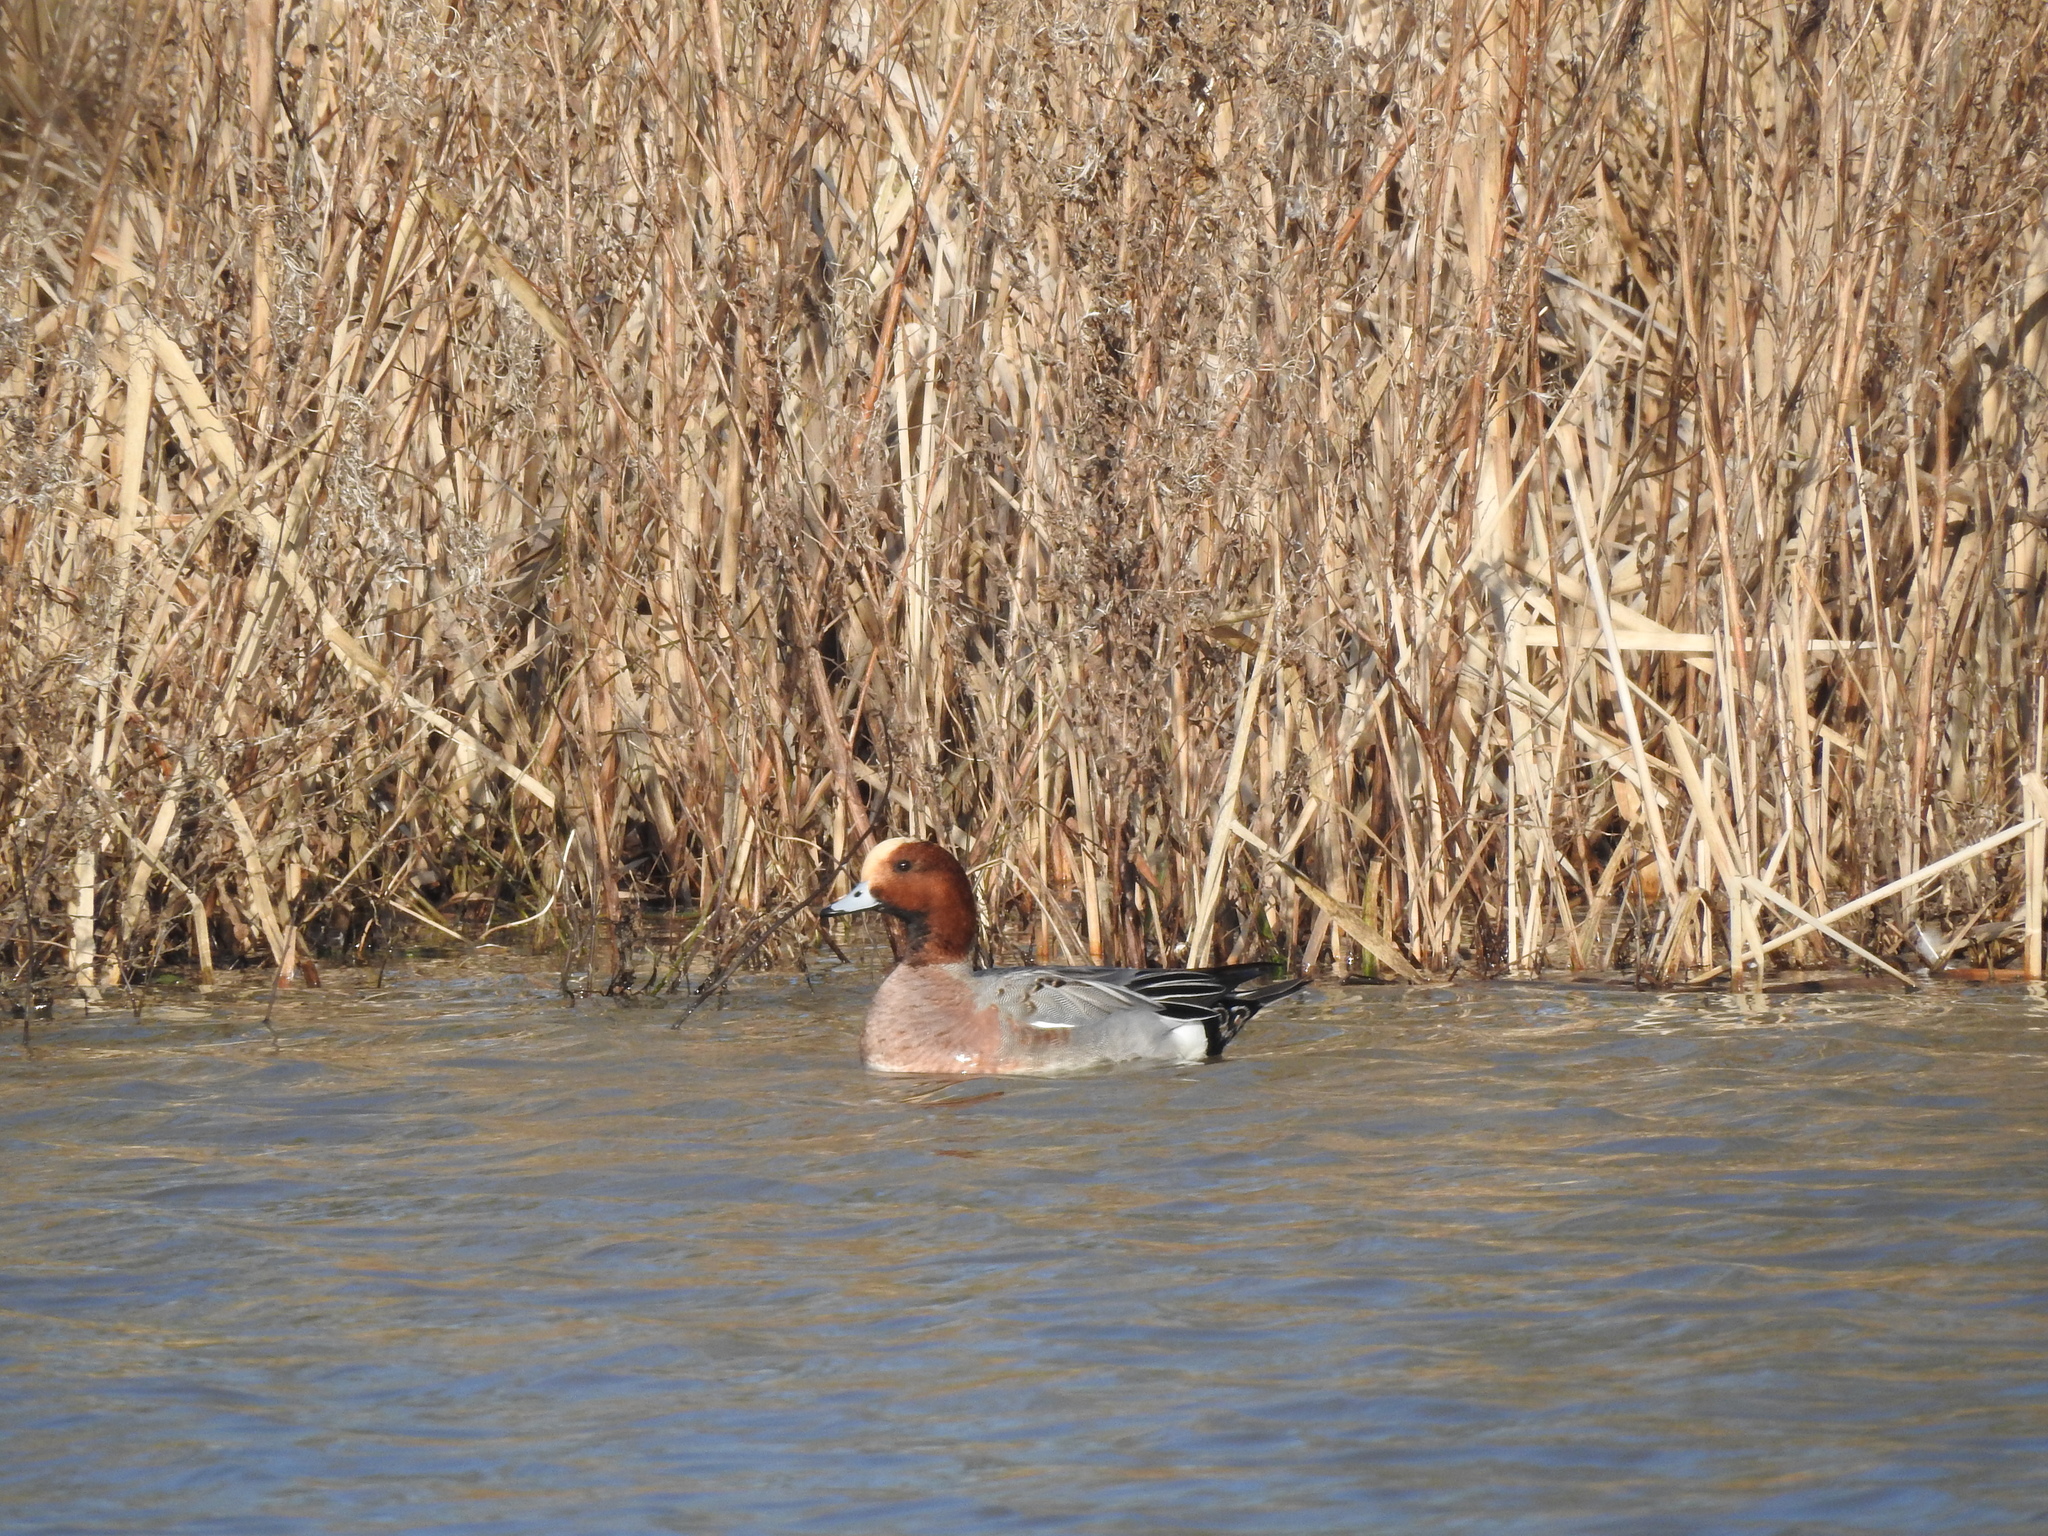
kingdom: Animalia
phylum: Chordata
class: Aves
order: Anseriformes
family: Anatidae
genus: Mareca
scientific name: Mareca penelope
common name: Eurasian wigeon
